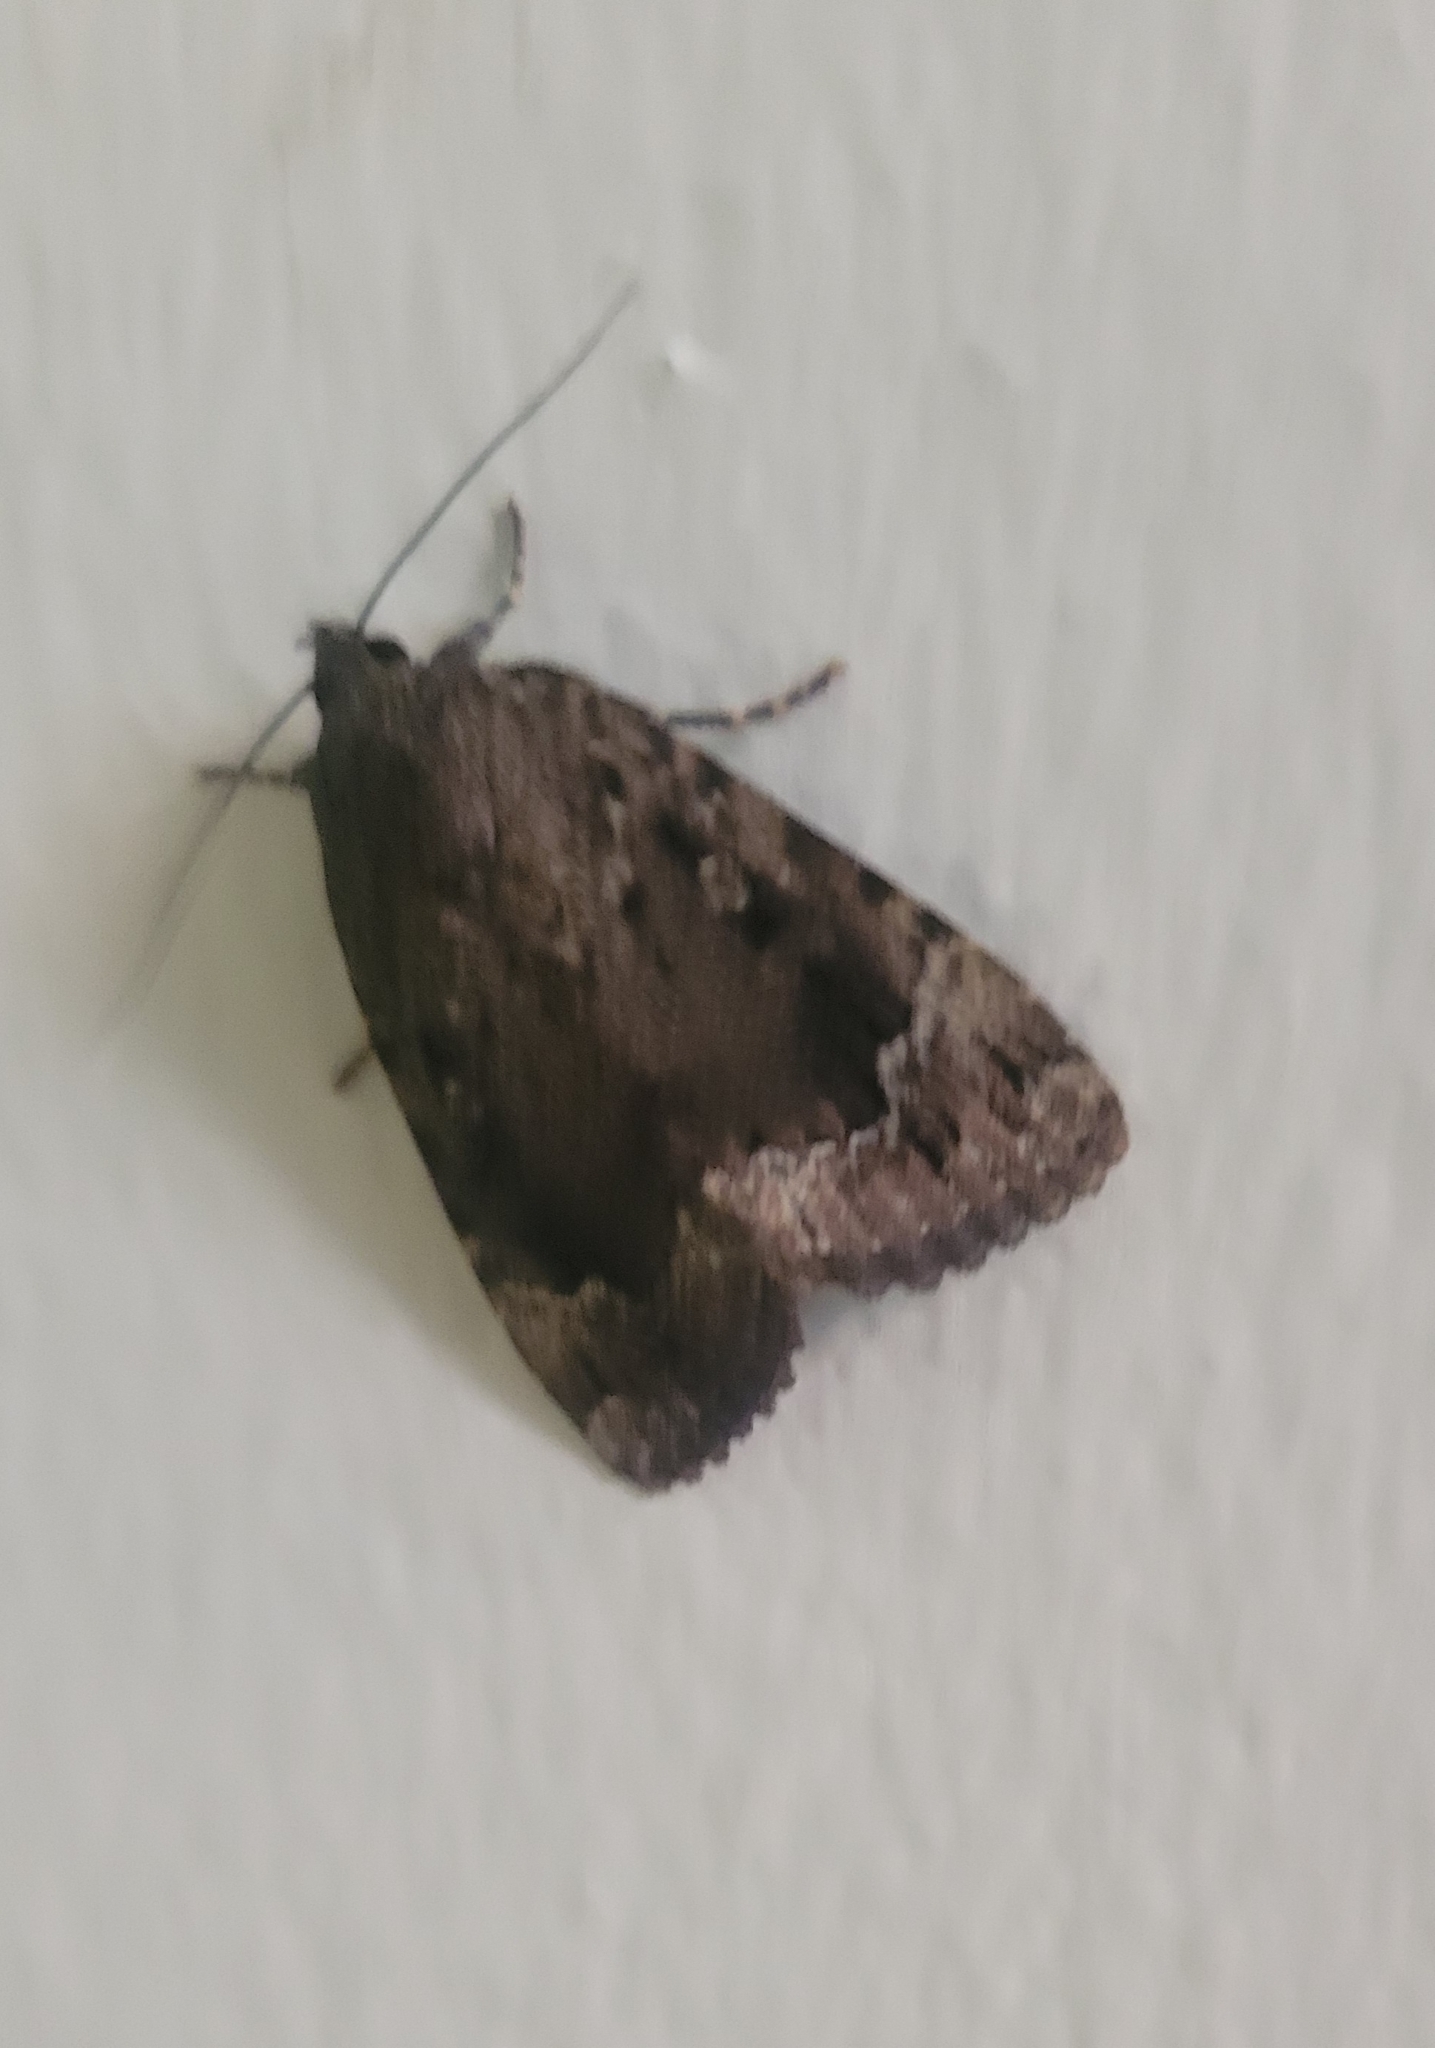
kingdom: Animalia
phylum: Arthropoda
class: Insecta
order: Lepidoptera
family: Noctuidae
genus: Amphipyra
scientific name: Amphipyra pyramidoides
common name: American copper underwing
